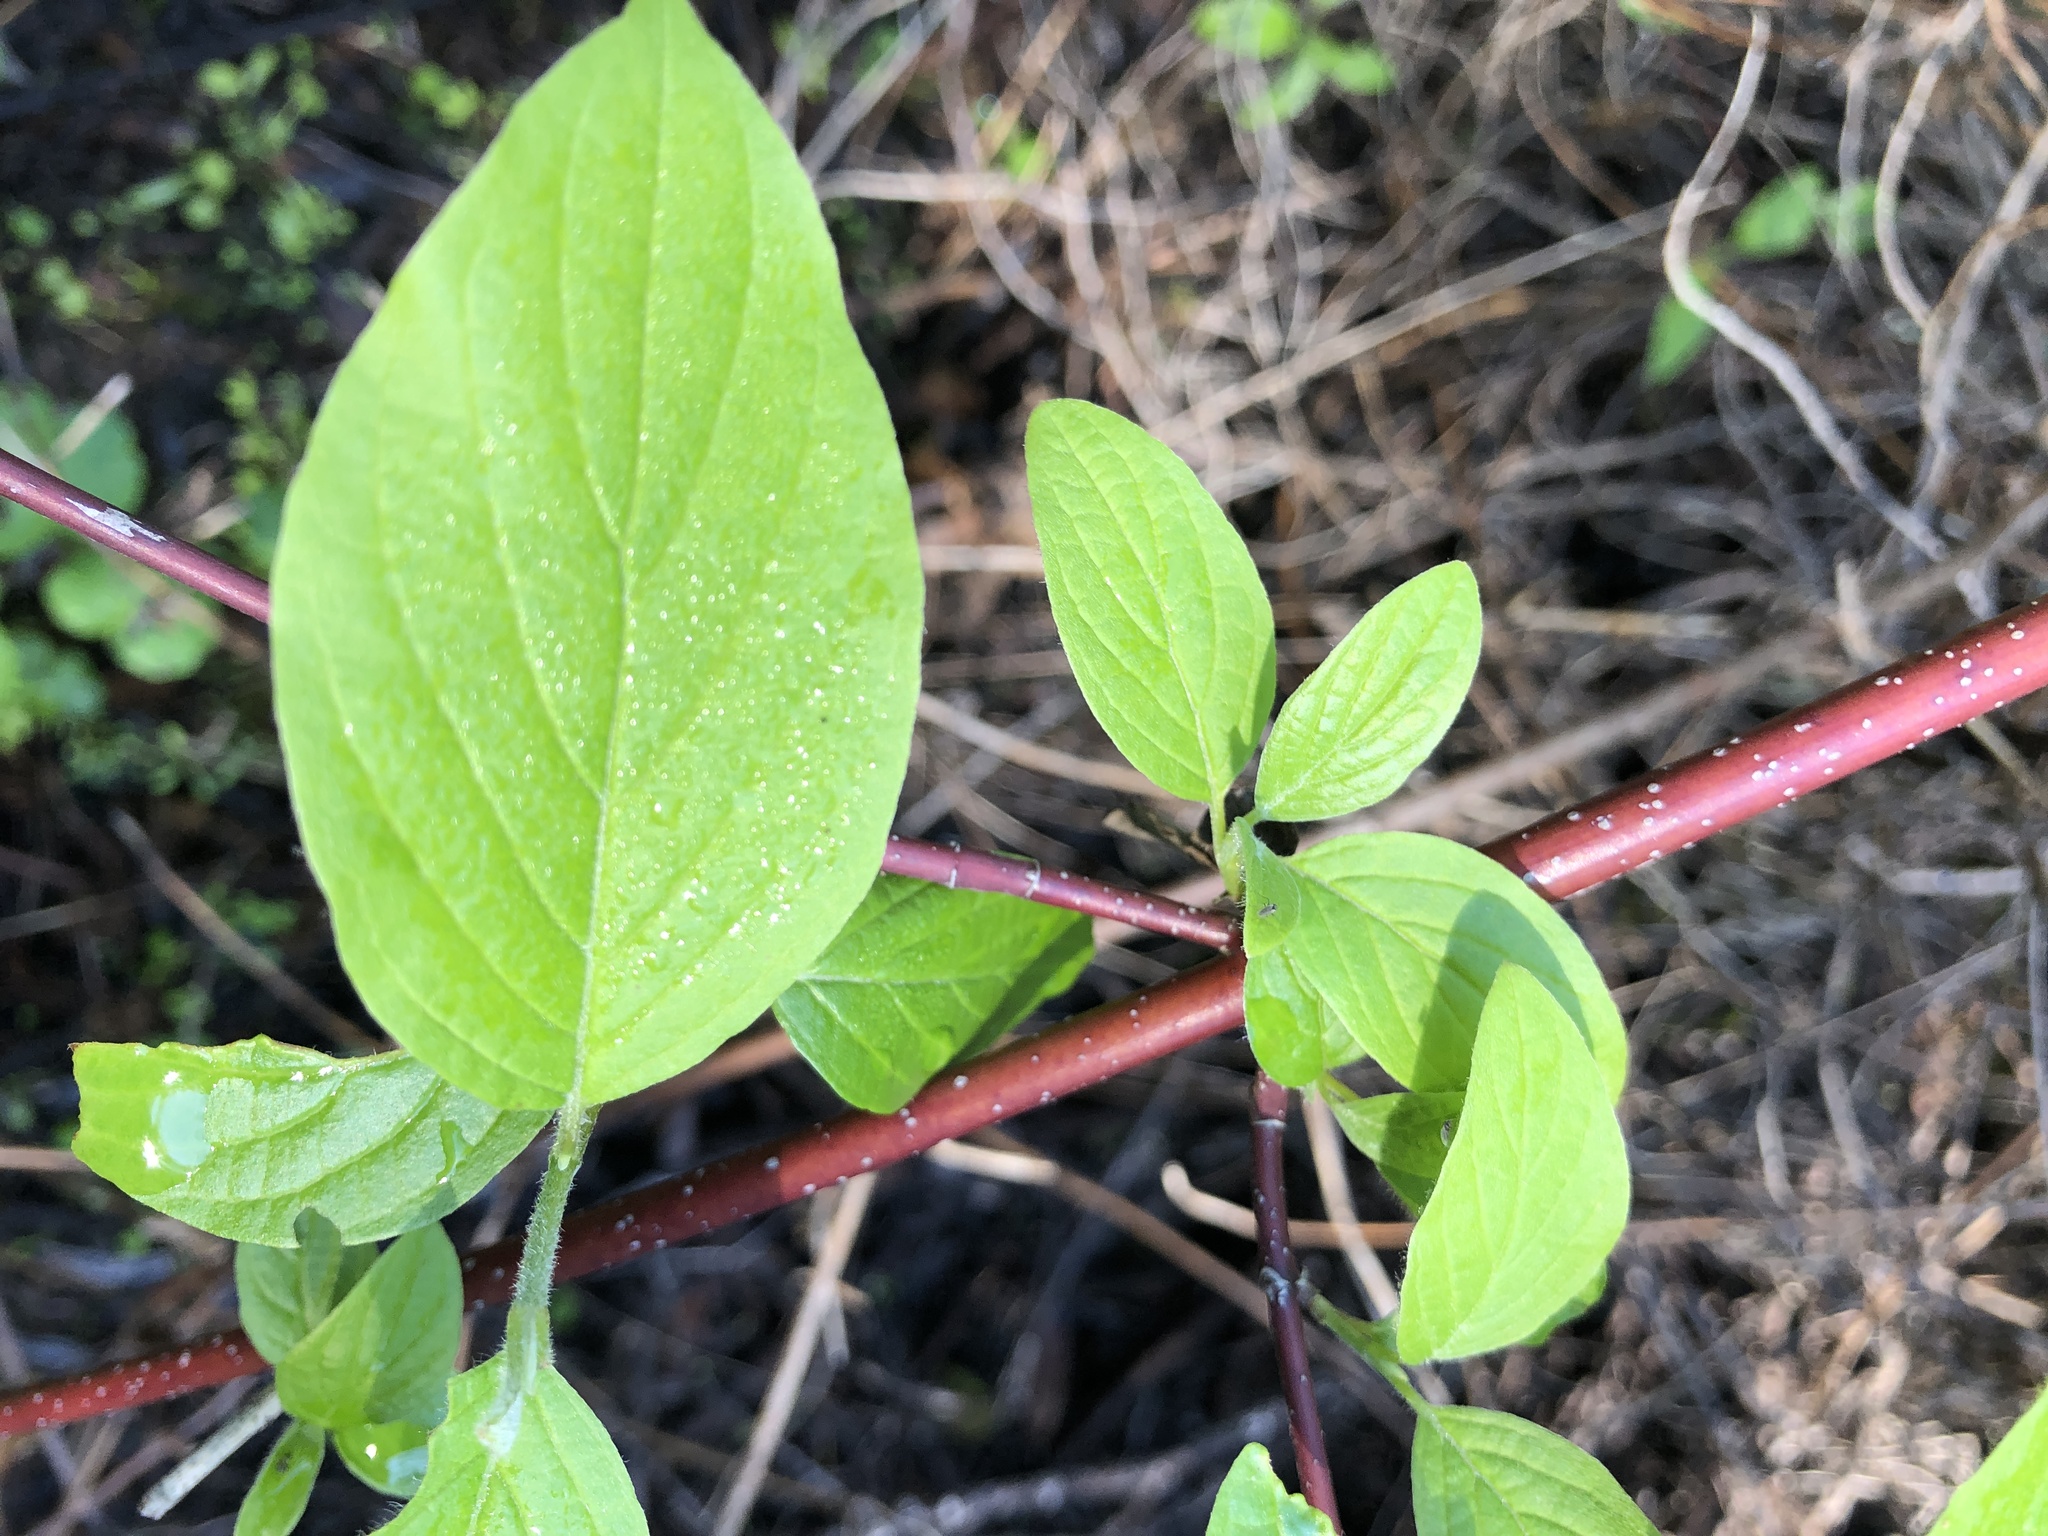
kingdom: Plantae
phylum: Tracheophyta
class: Magnoliopsida
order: Cornales
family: Cornaceae
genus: Cornus
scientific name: Cornus sericea
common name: Red-osier dogwood
